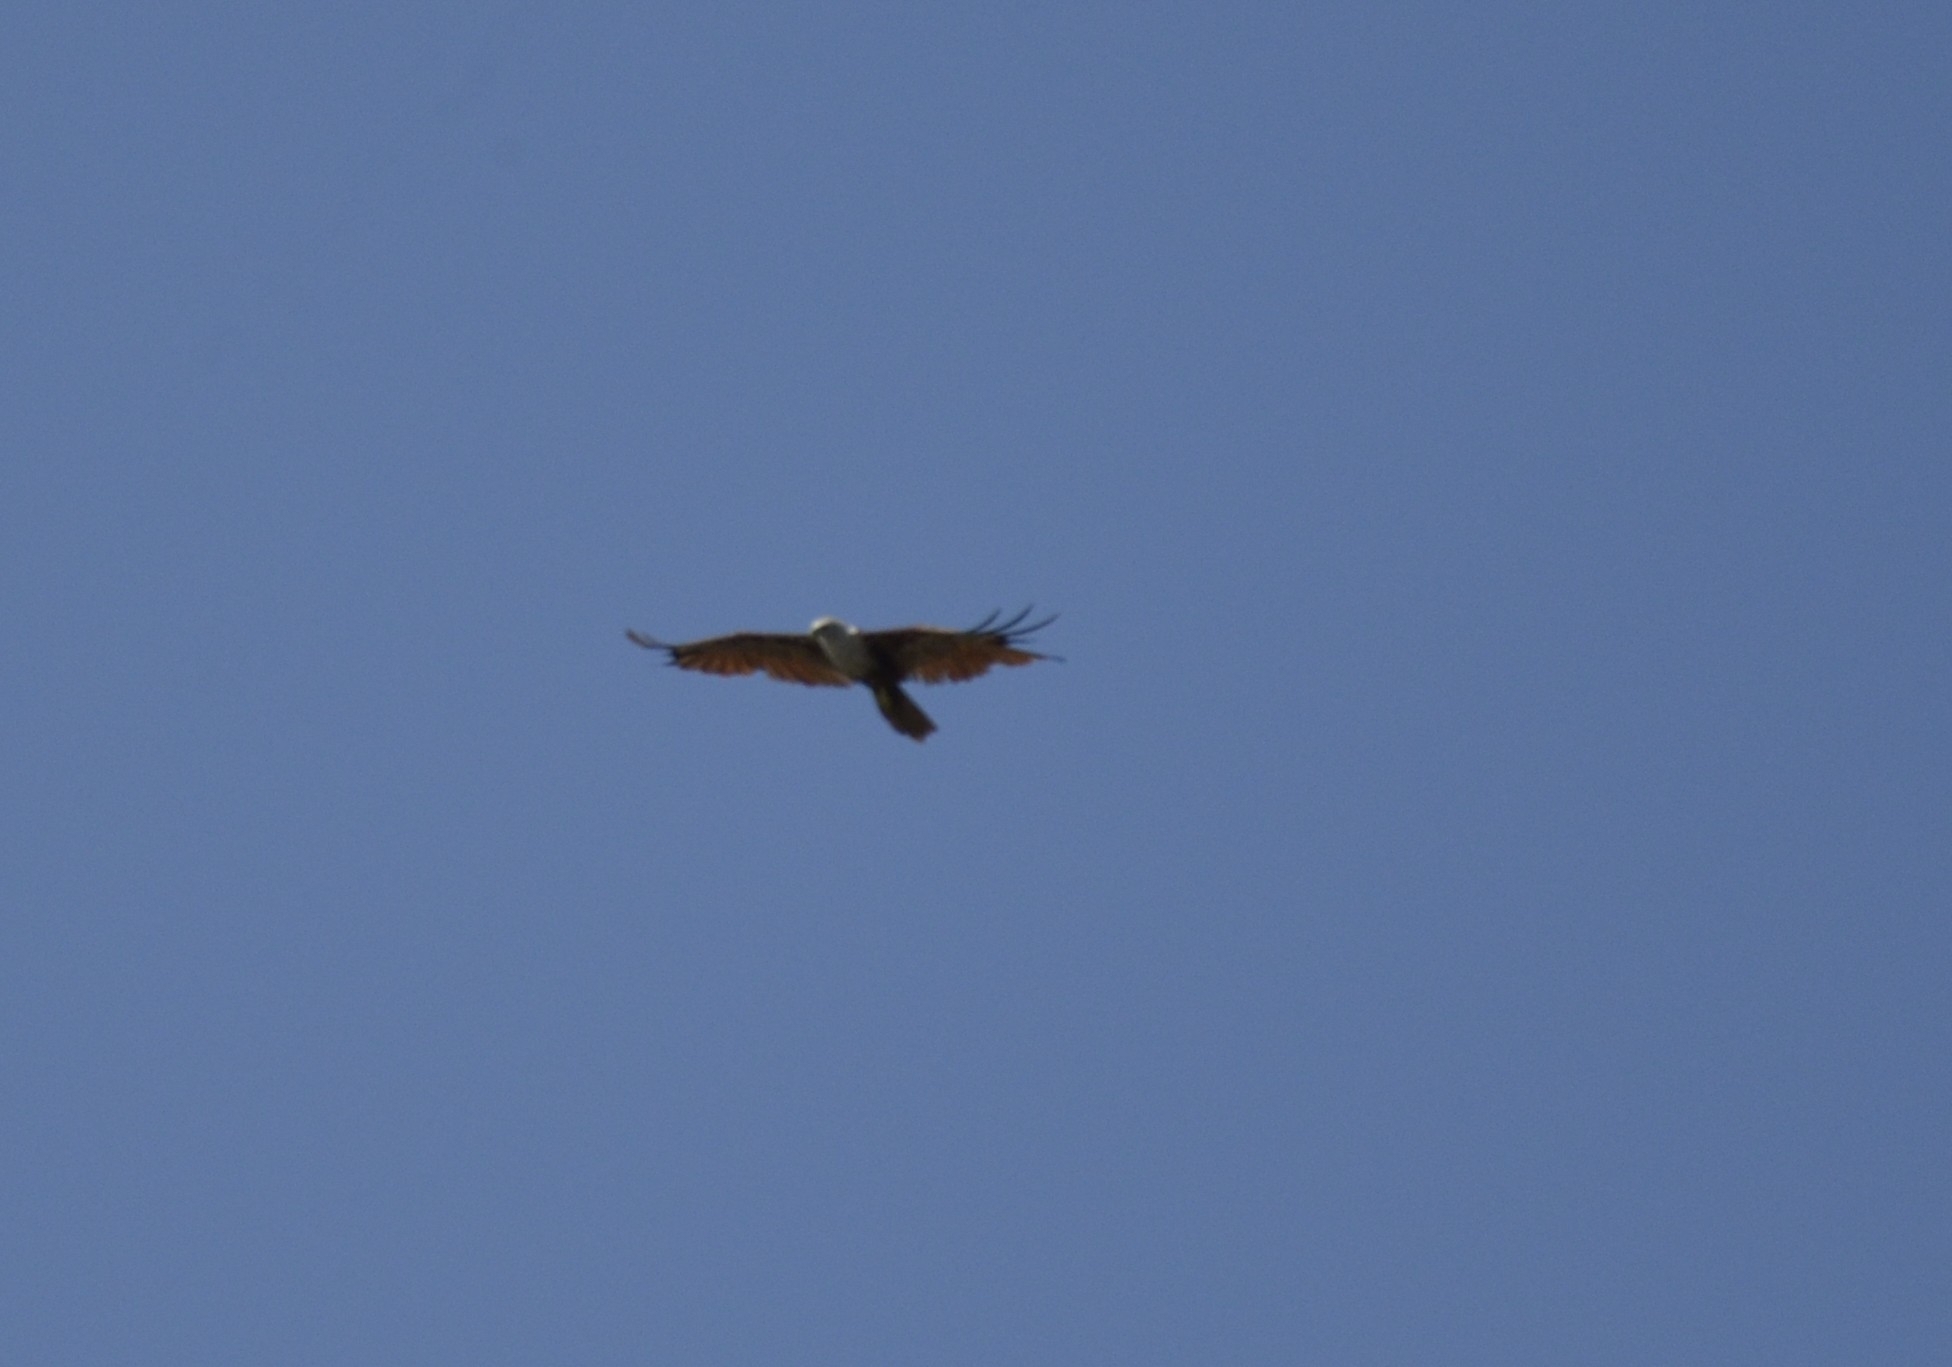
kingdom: Animalia
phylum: Chordata
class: Aves
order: Accipitriformes
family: Accipitridae
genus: Haliastur
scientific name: Haliastur indus
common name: Brahminy kite
